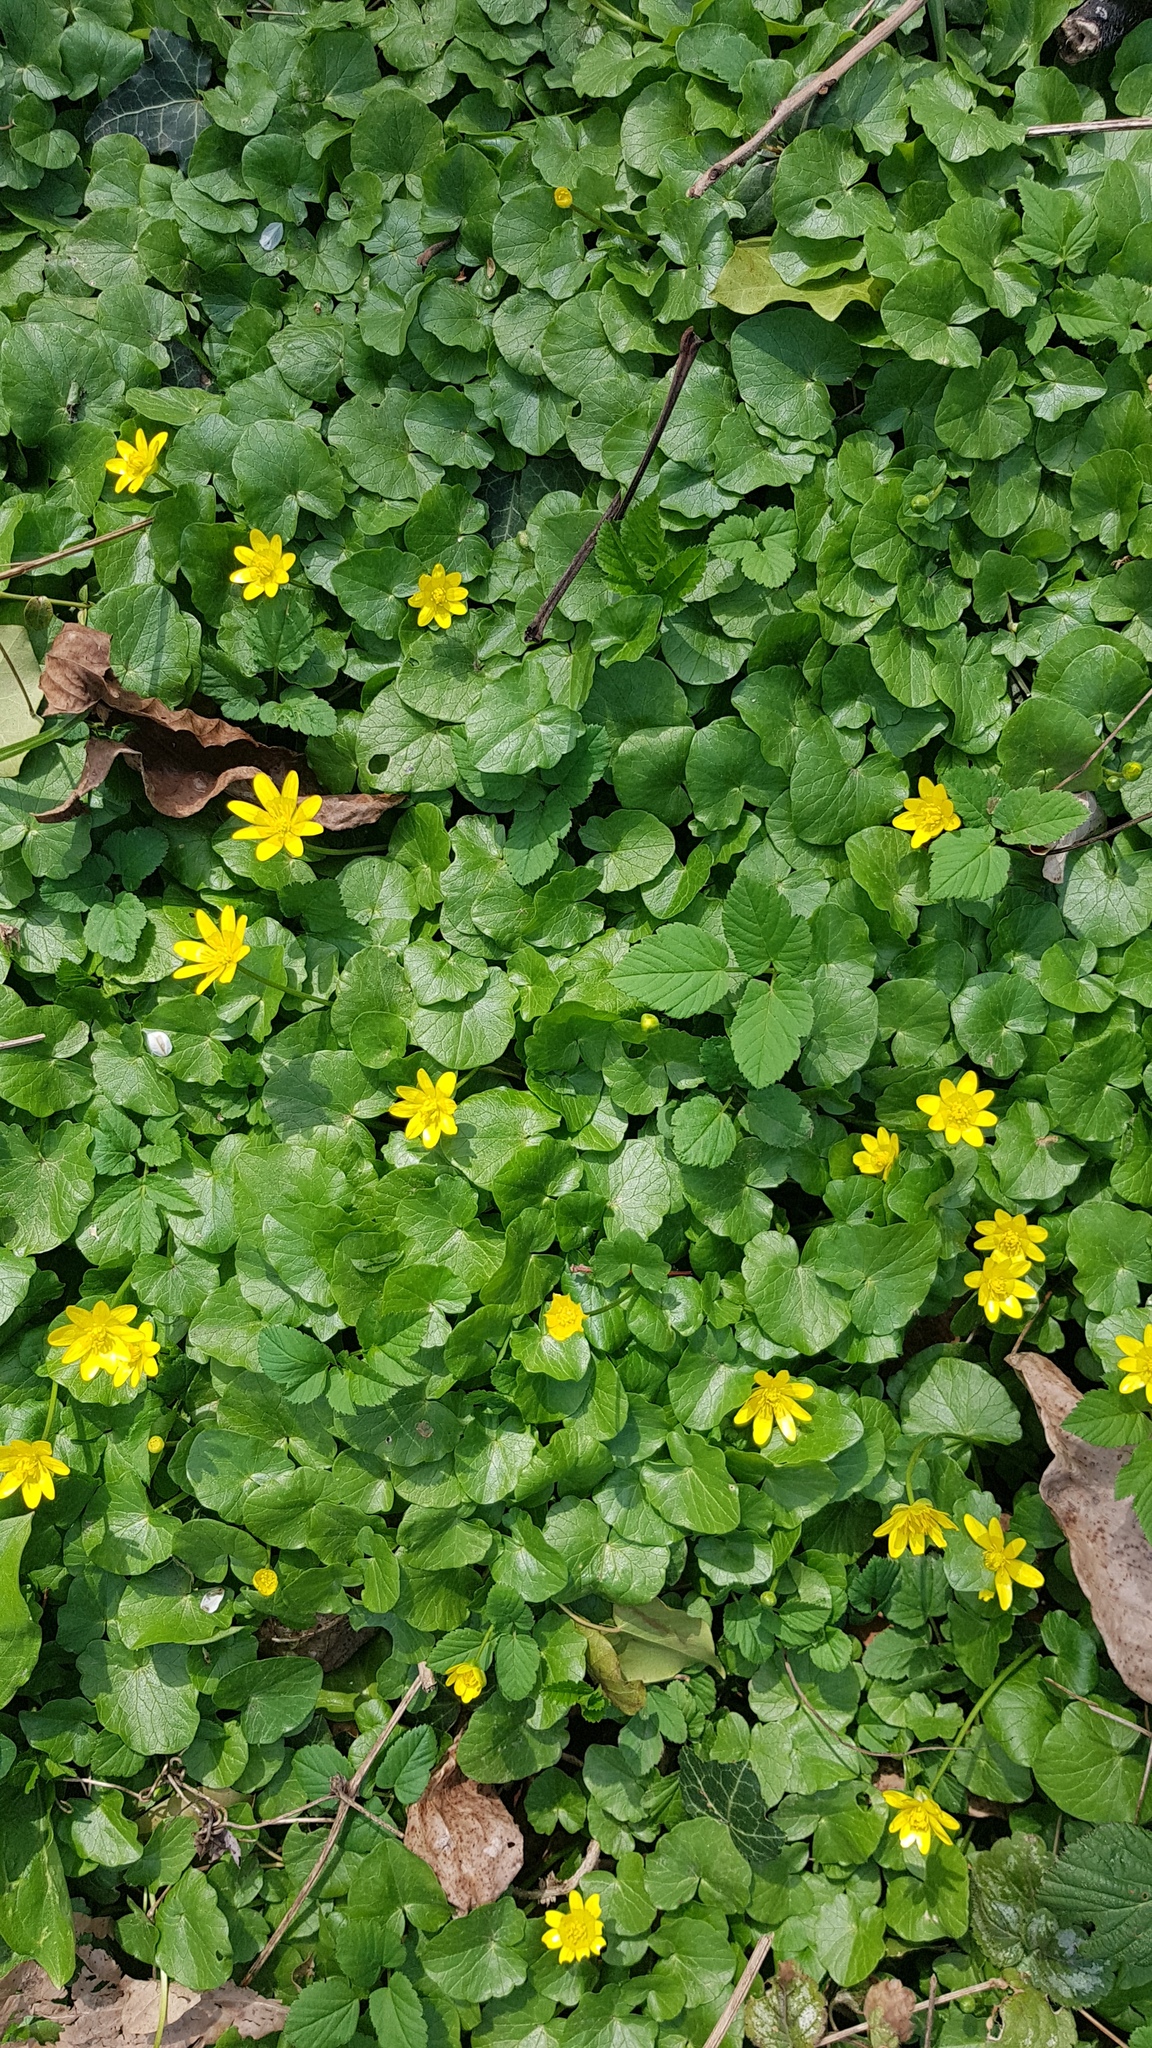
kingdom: Plantae
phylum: Tracheophyta
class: Magnoliopsida
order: Ranunculales
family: Ranunculaceae
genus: Ficaria
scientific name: Ficaria verna
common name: Lesser celandine
